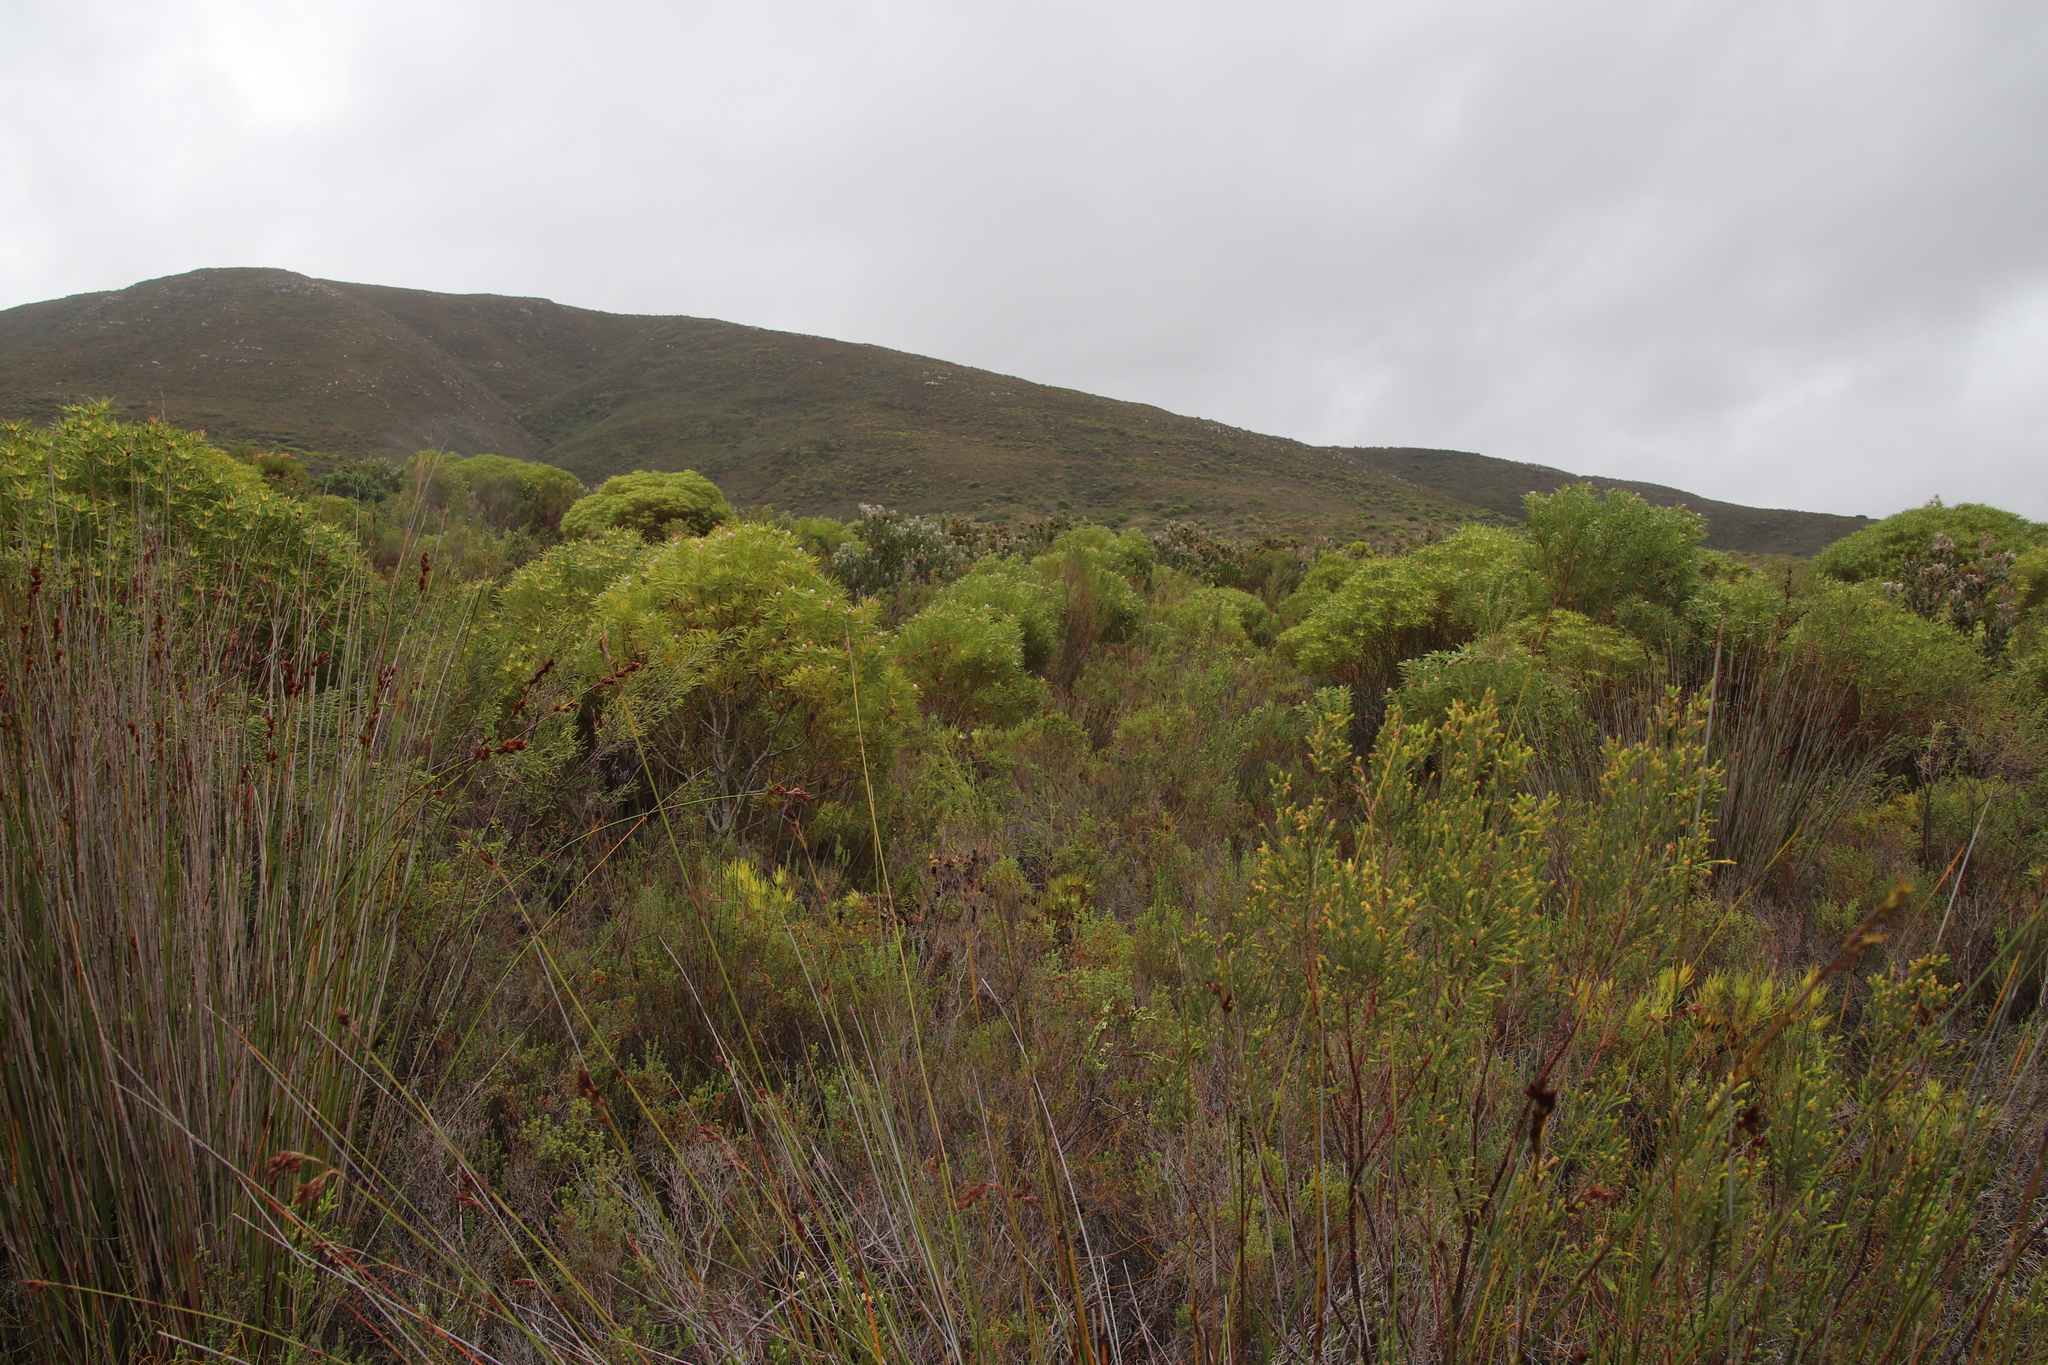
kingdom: Plantae
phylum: Tracheophyta
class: Magnoliopsida
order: Proteales
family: Proteaceae
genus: Leucadendron
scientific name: Leucadendron coniferum
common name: Dune conebush
